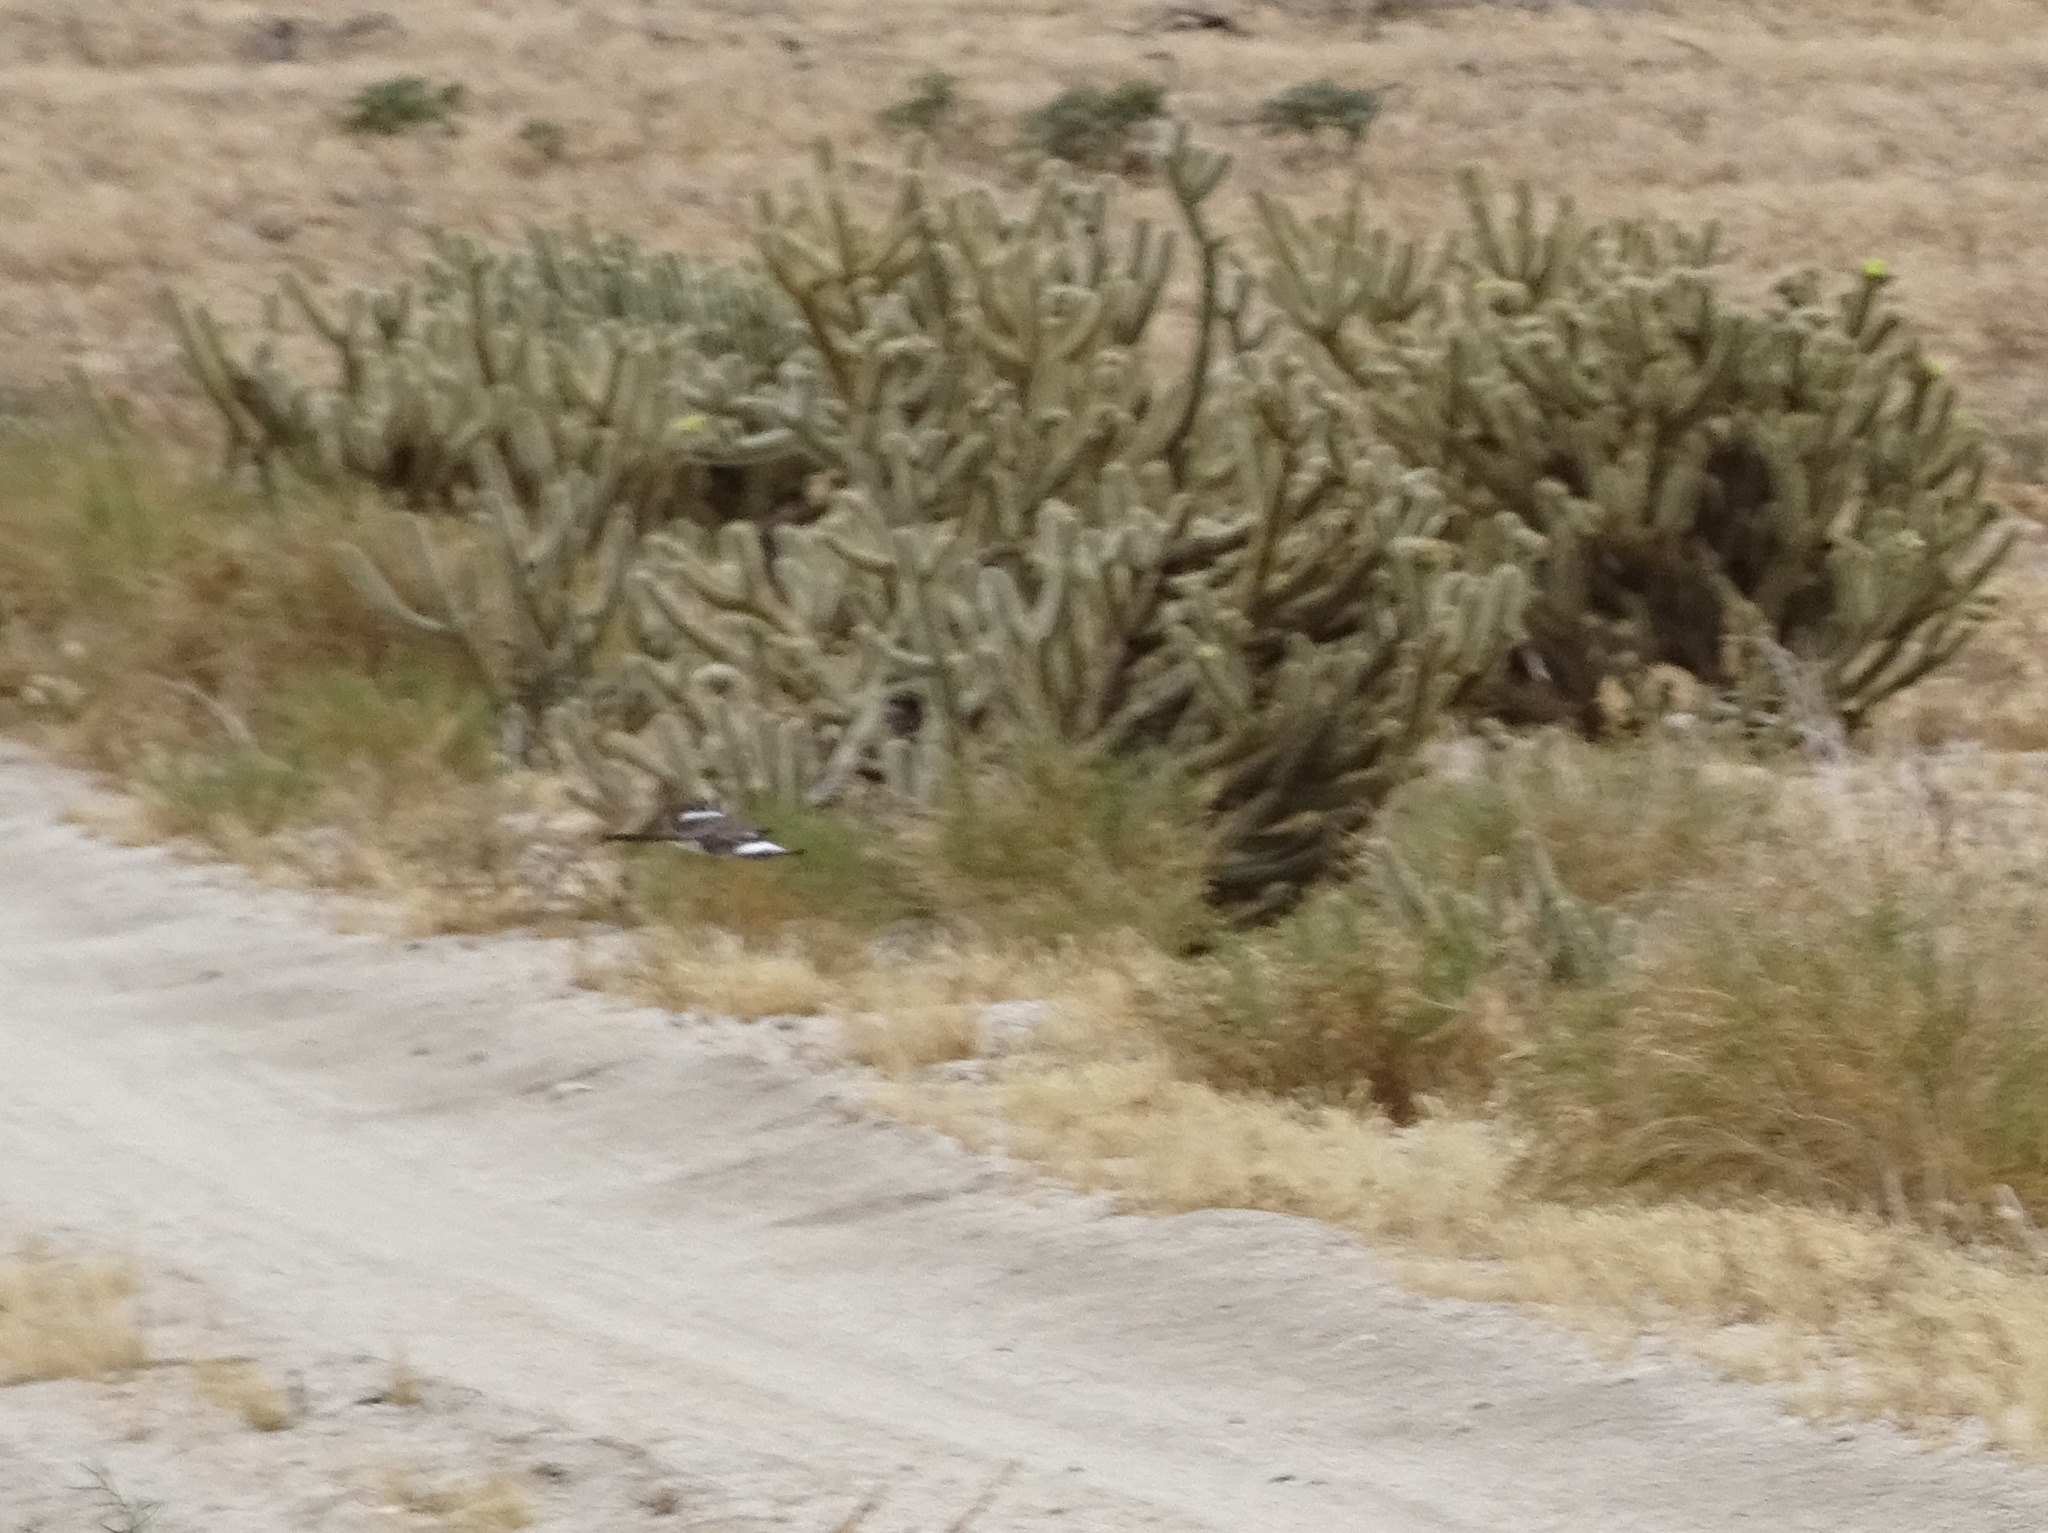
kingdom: Animalia
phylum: Chordata
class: Aves
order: Passeriformes
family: Mimidae
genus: Mimus
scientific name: Mimus polyglottos
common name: Northern mockingbird
